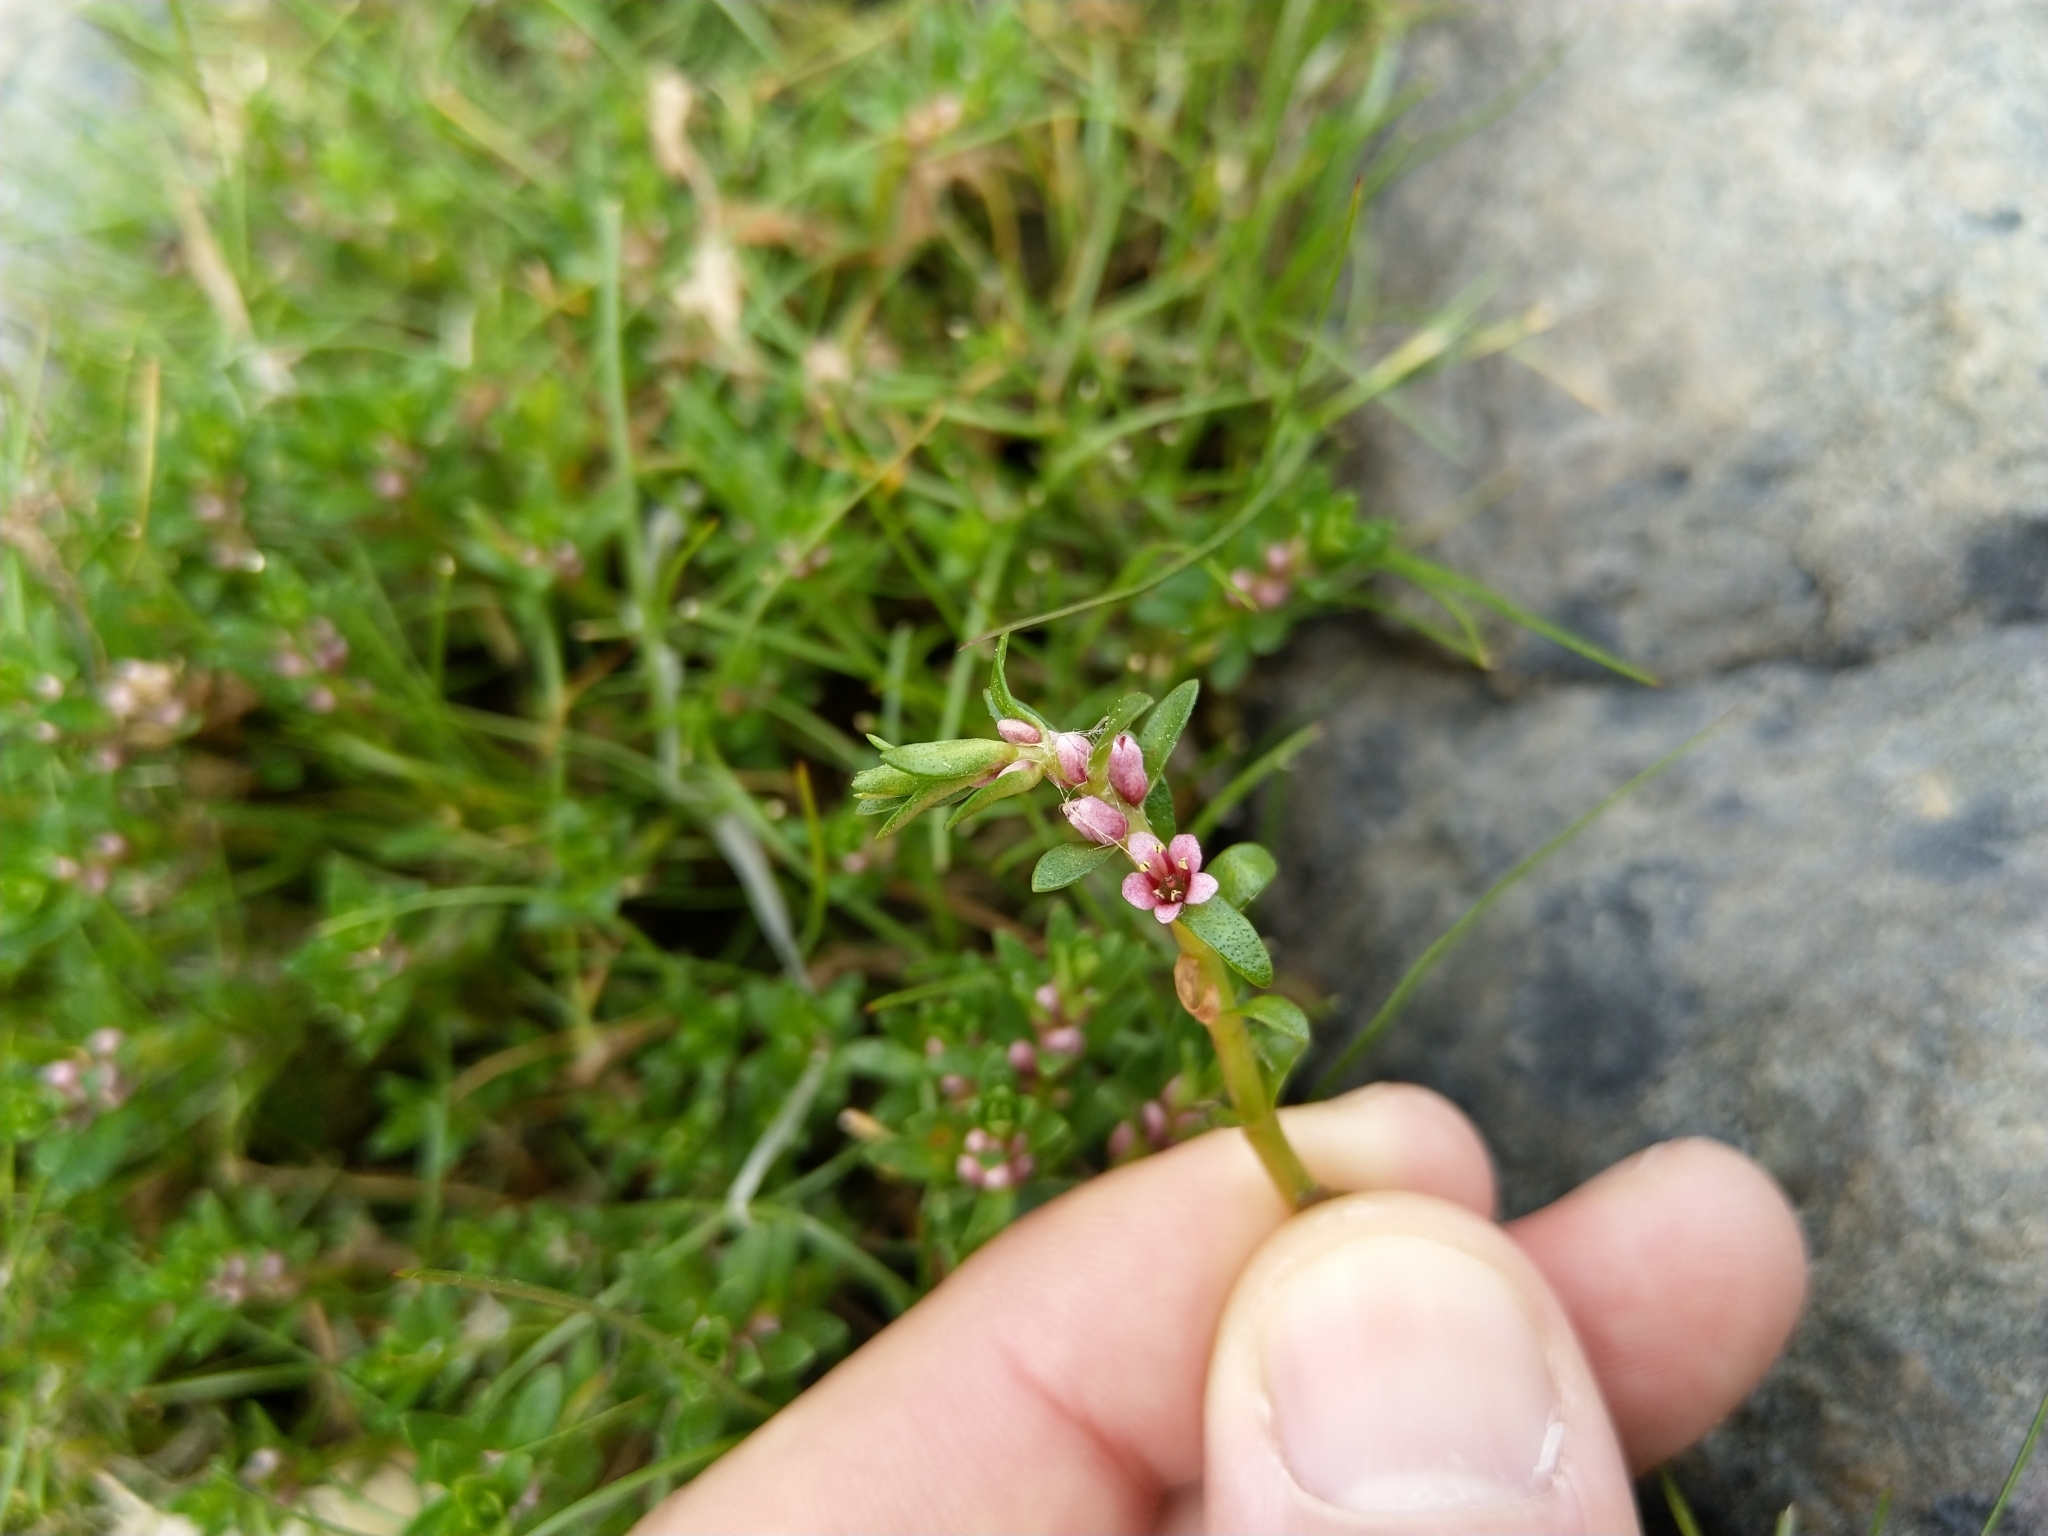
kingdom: Plantae
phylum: Tracheophyta
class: Magnoliopsida
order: Ericales
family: Primulaceae
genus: Lysimachia
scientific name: Lysimachia maritima
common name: Sea milkwort
